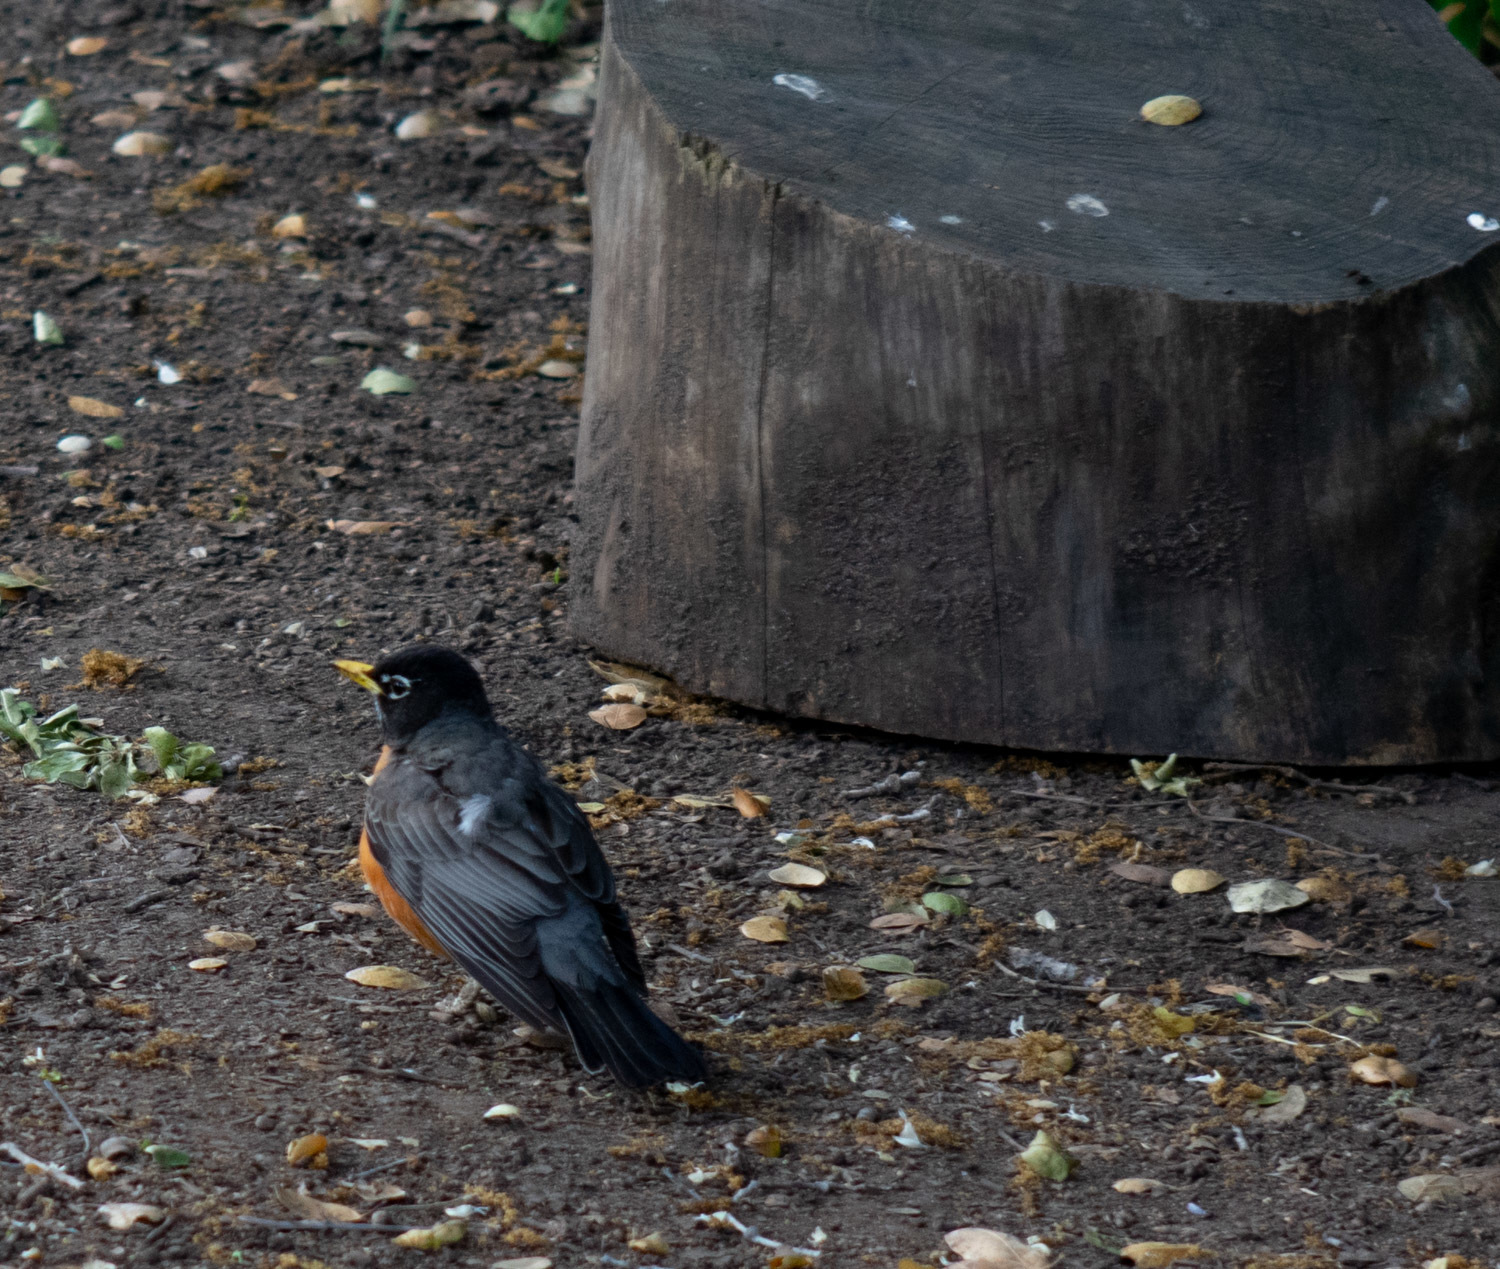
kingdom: Animalia
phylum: Chordata
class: Aves
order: Passeriformes
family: Turdidae
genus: Turdus
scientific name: Turdus migratorius
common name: American robin
